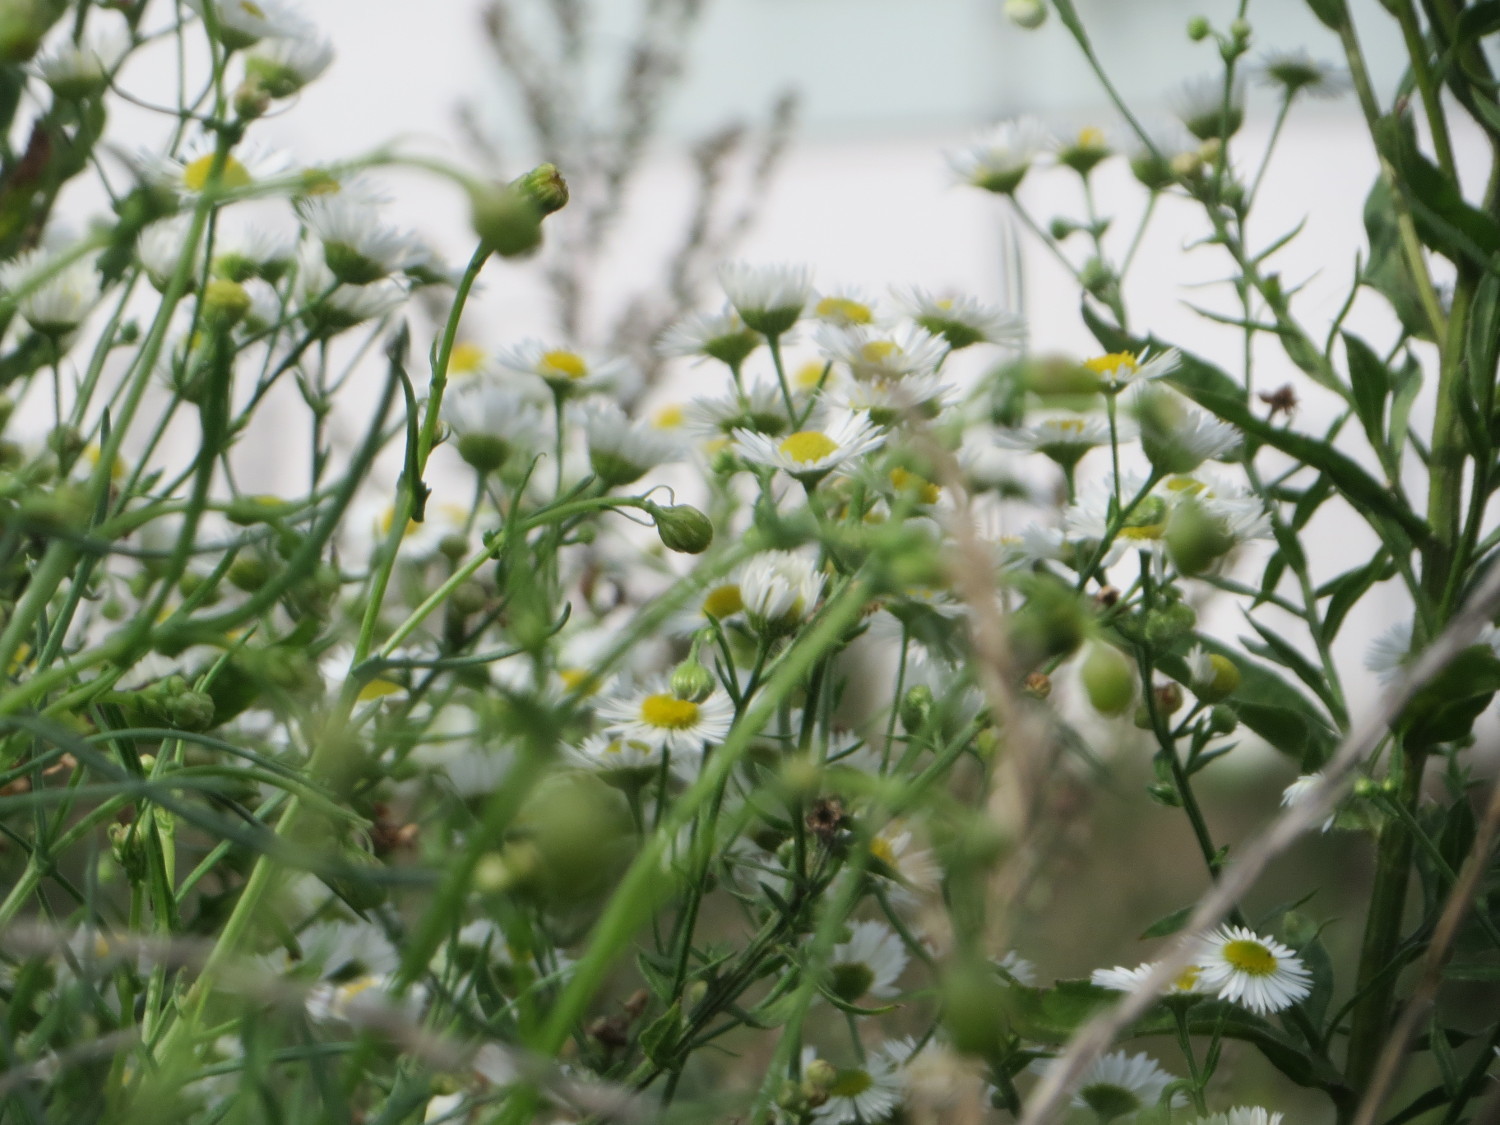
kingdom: Plantae
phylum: Tracheophyta
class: Magnoliopsida
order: Asterales
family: Asteraceae
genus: Erigeron
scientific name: Erigeron annuus
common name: Tall fleabane
